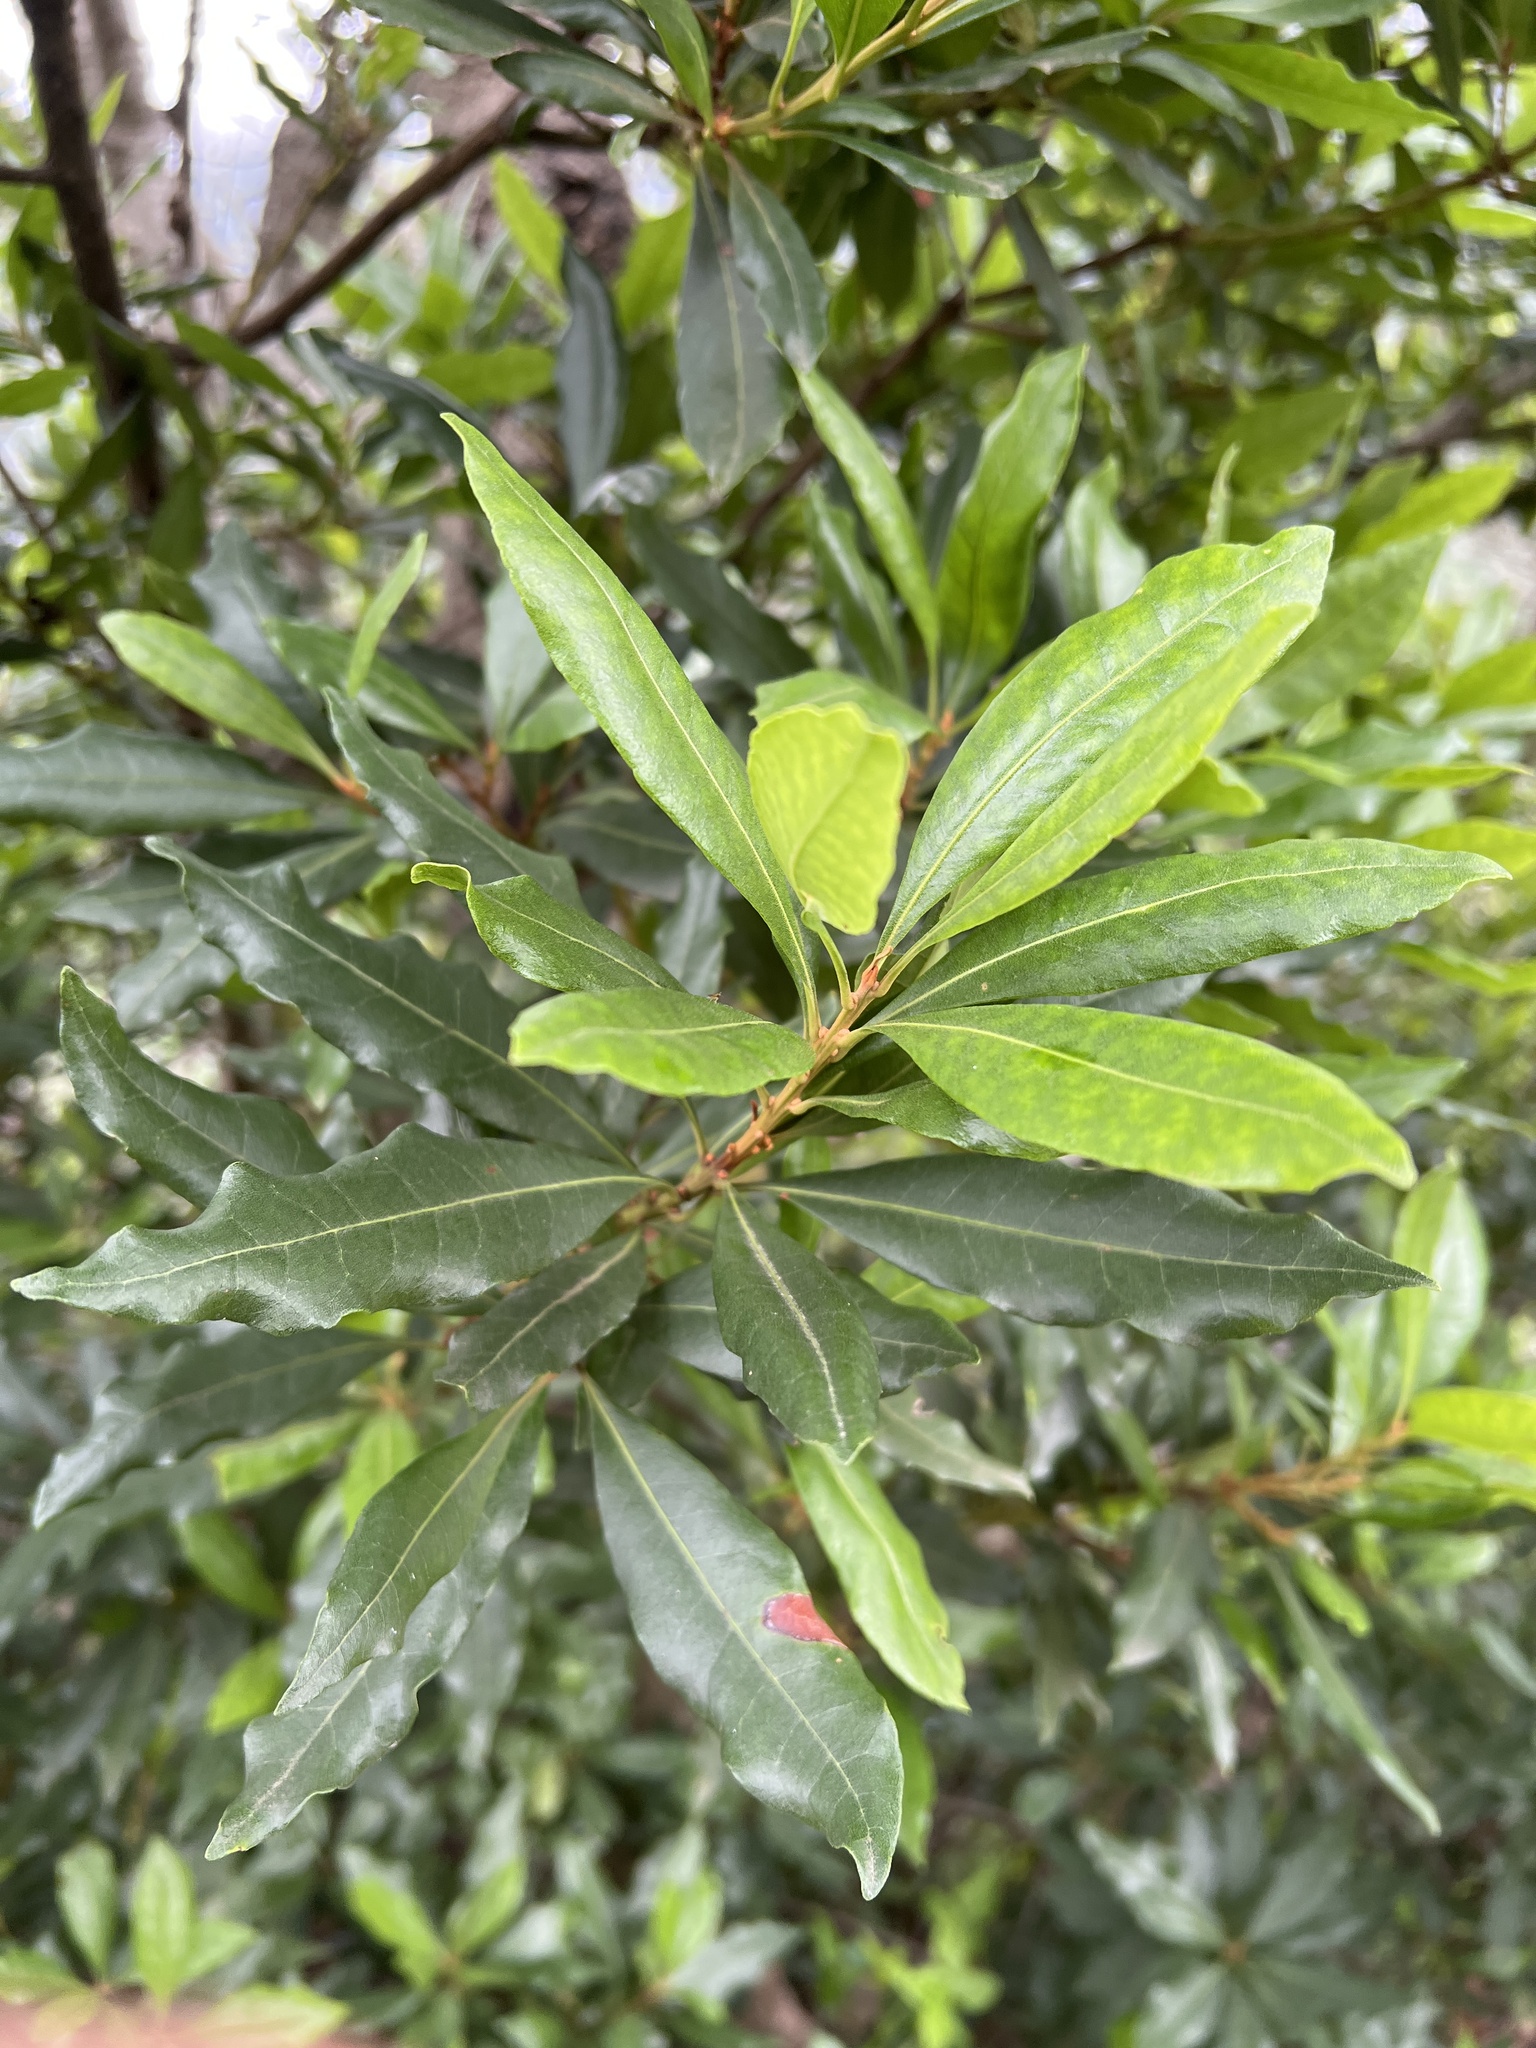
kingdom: Plantae
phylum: Tracheophyta
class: Magnoliopsida
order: Fagales
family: Myricaceae
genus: Morella
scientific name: Morella faya
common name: Firetree
